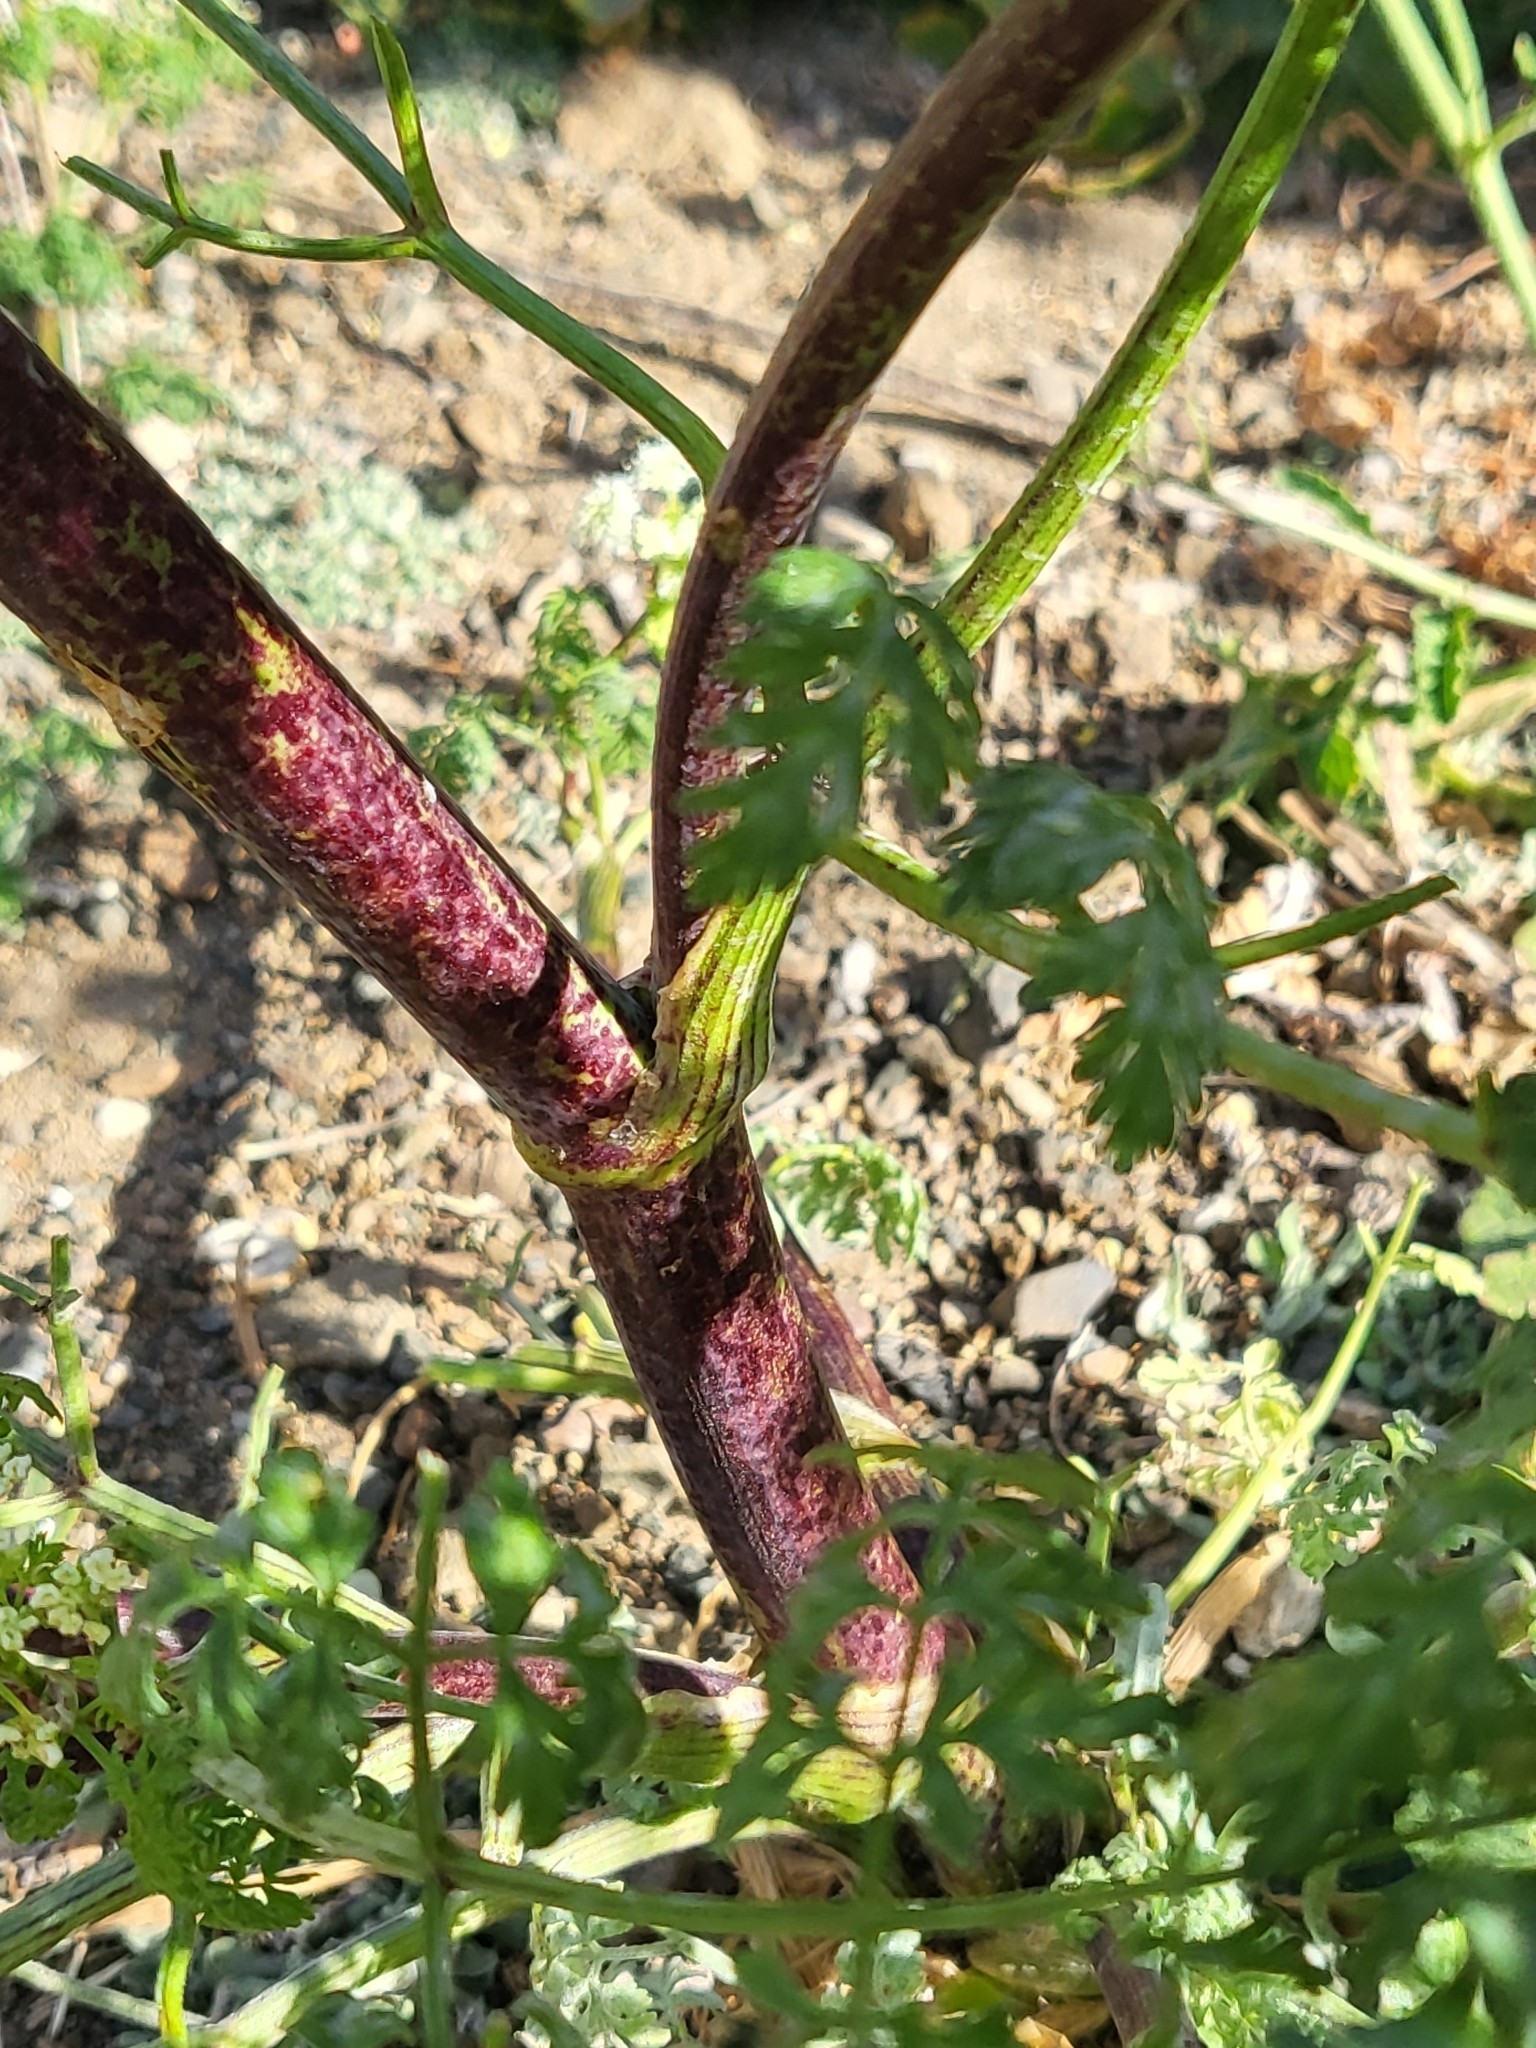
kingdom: Plantae
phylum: Tracheophyta
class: Magnoliopsida
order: Apiales
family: Apiaceae
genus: Conium
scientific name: Conium maculatum
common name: Hemlock
